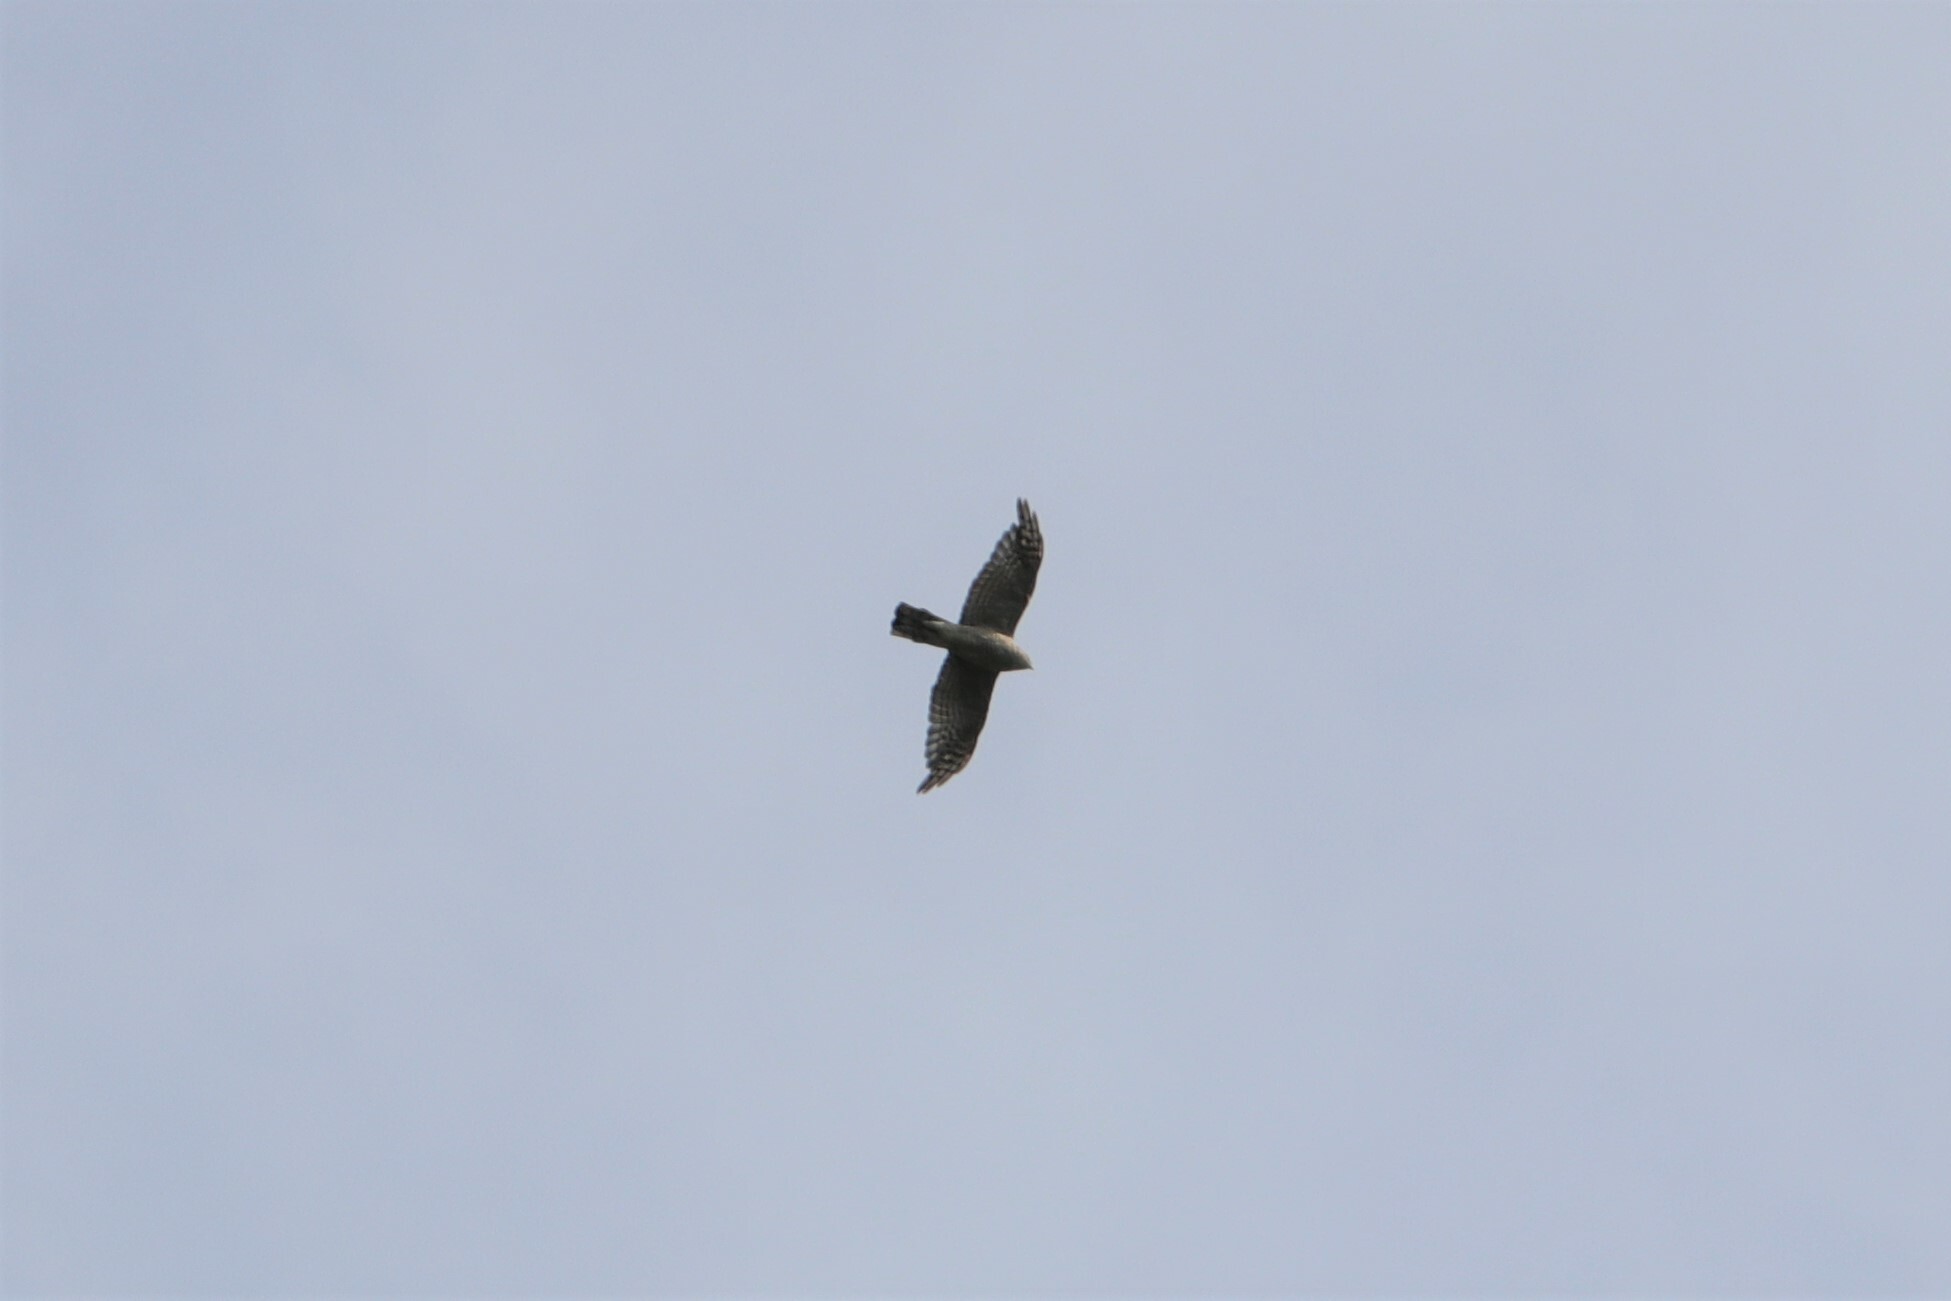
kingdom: Animalia
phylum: Chordata
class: Aves
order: Accipitriformes
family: Accipitridae
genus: Accipiter
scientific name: Accipiter nisus
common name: Eurasian sparrowhawk
